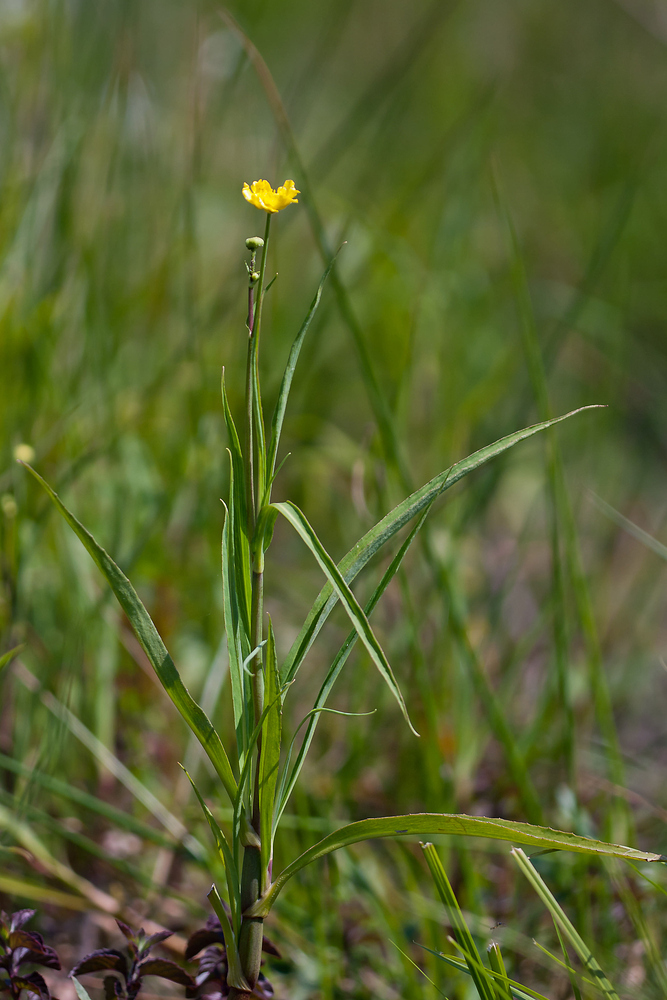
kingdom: Plantae
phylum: Tracheophyta
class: Magnoliopsida
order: Ranunculales
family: Ranunculaceae
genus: Ranunculus
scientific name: Ranunculus lingua
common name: Greater spearwort
